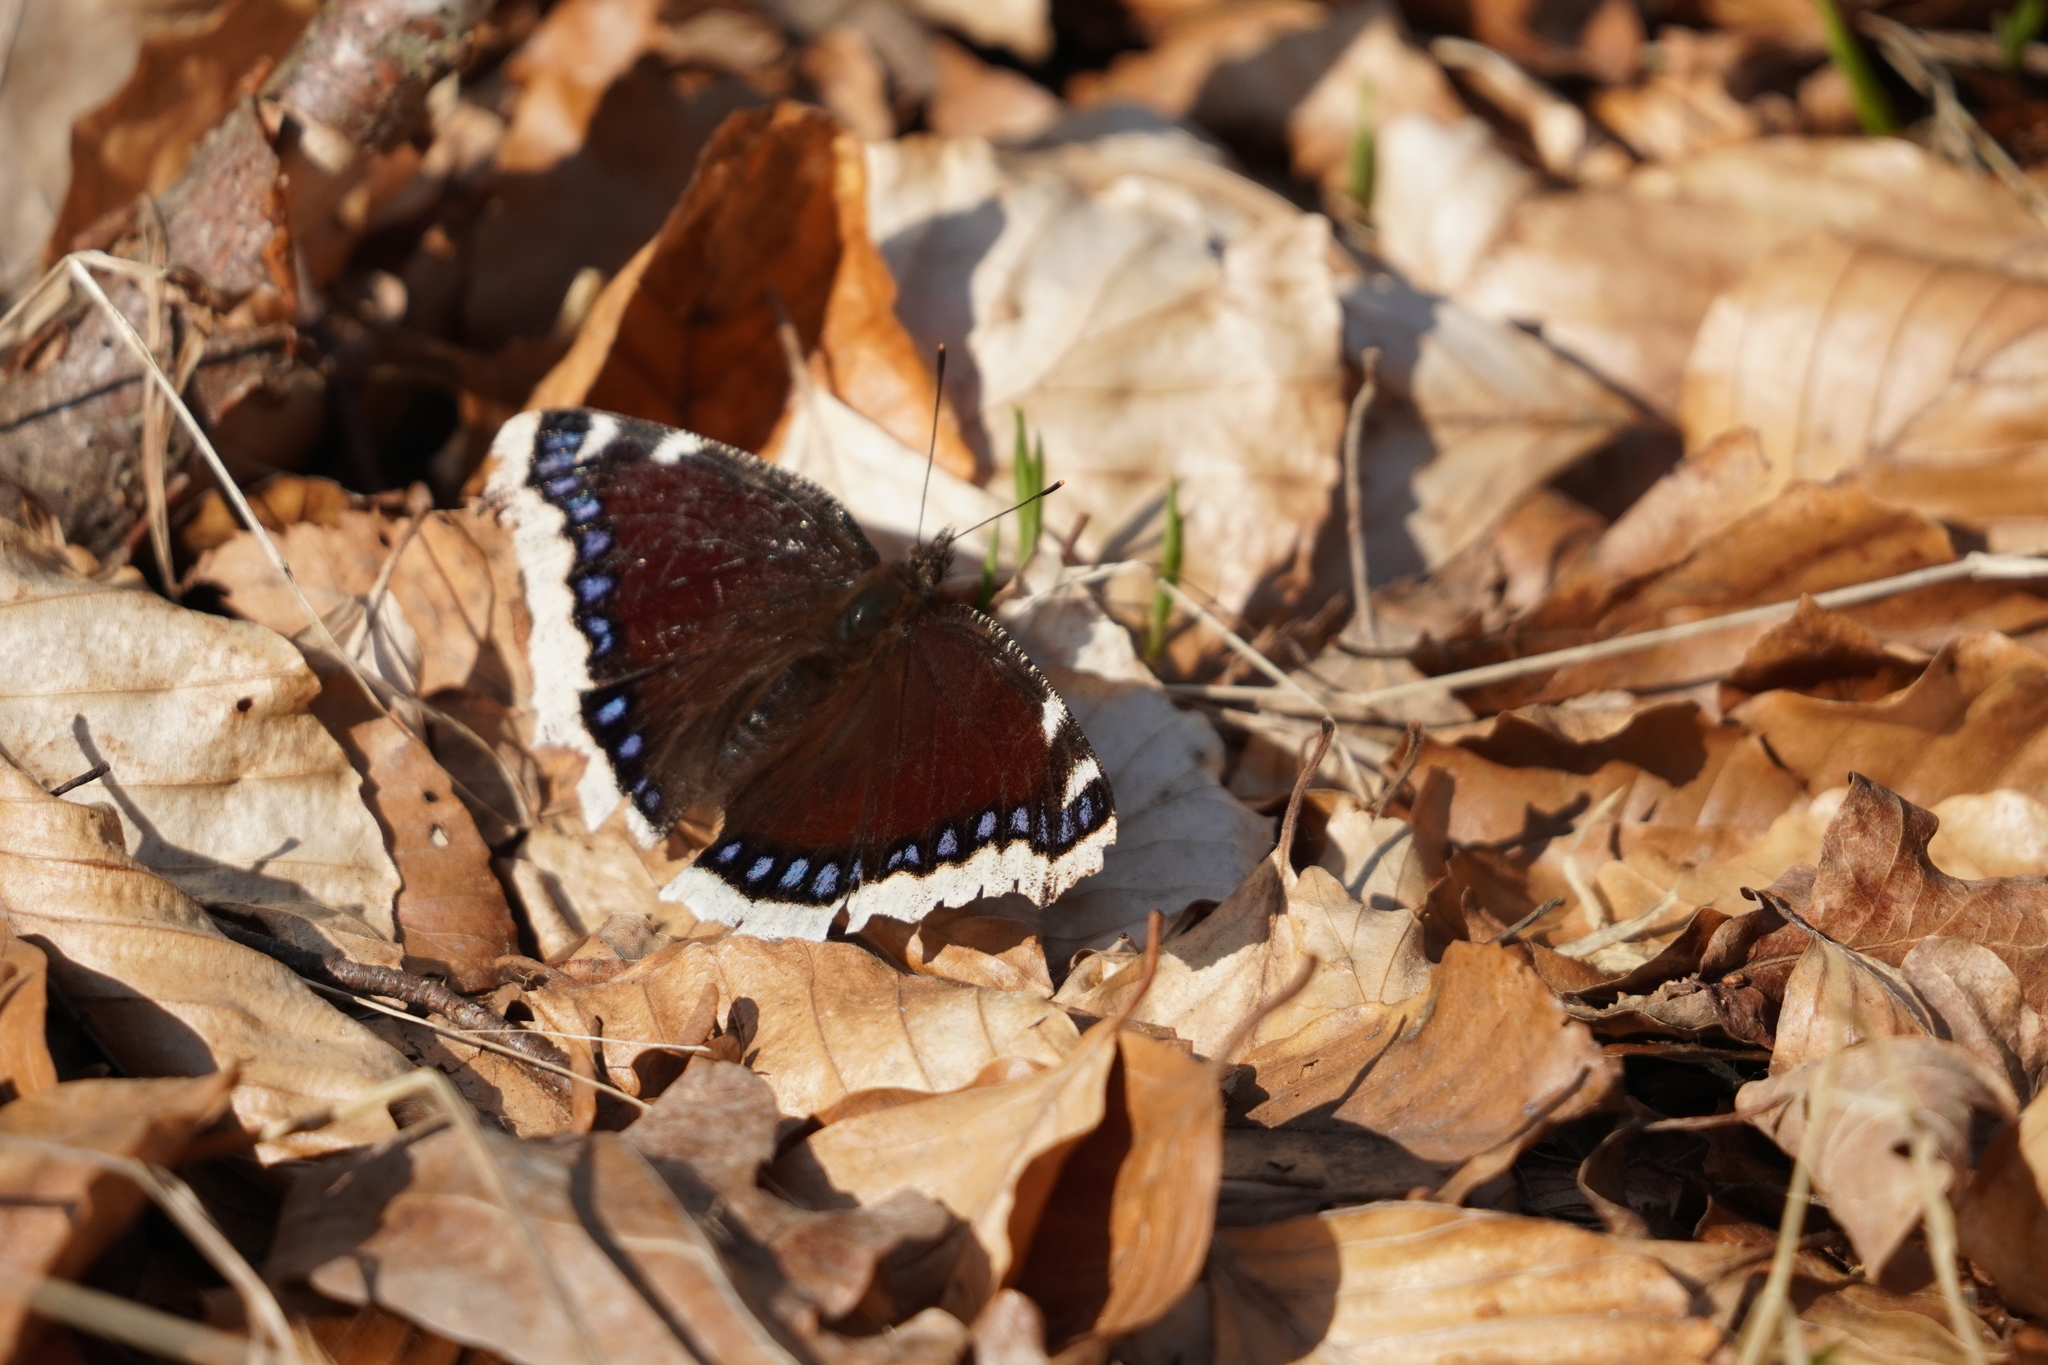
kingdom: Animalia
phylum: Arthropoda
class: Insecta
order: Lepidoptera
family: Nymphalidae
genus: Nymphalis
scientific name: Nymphalis antiopa
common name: Camberwell beauty
